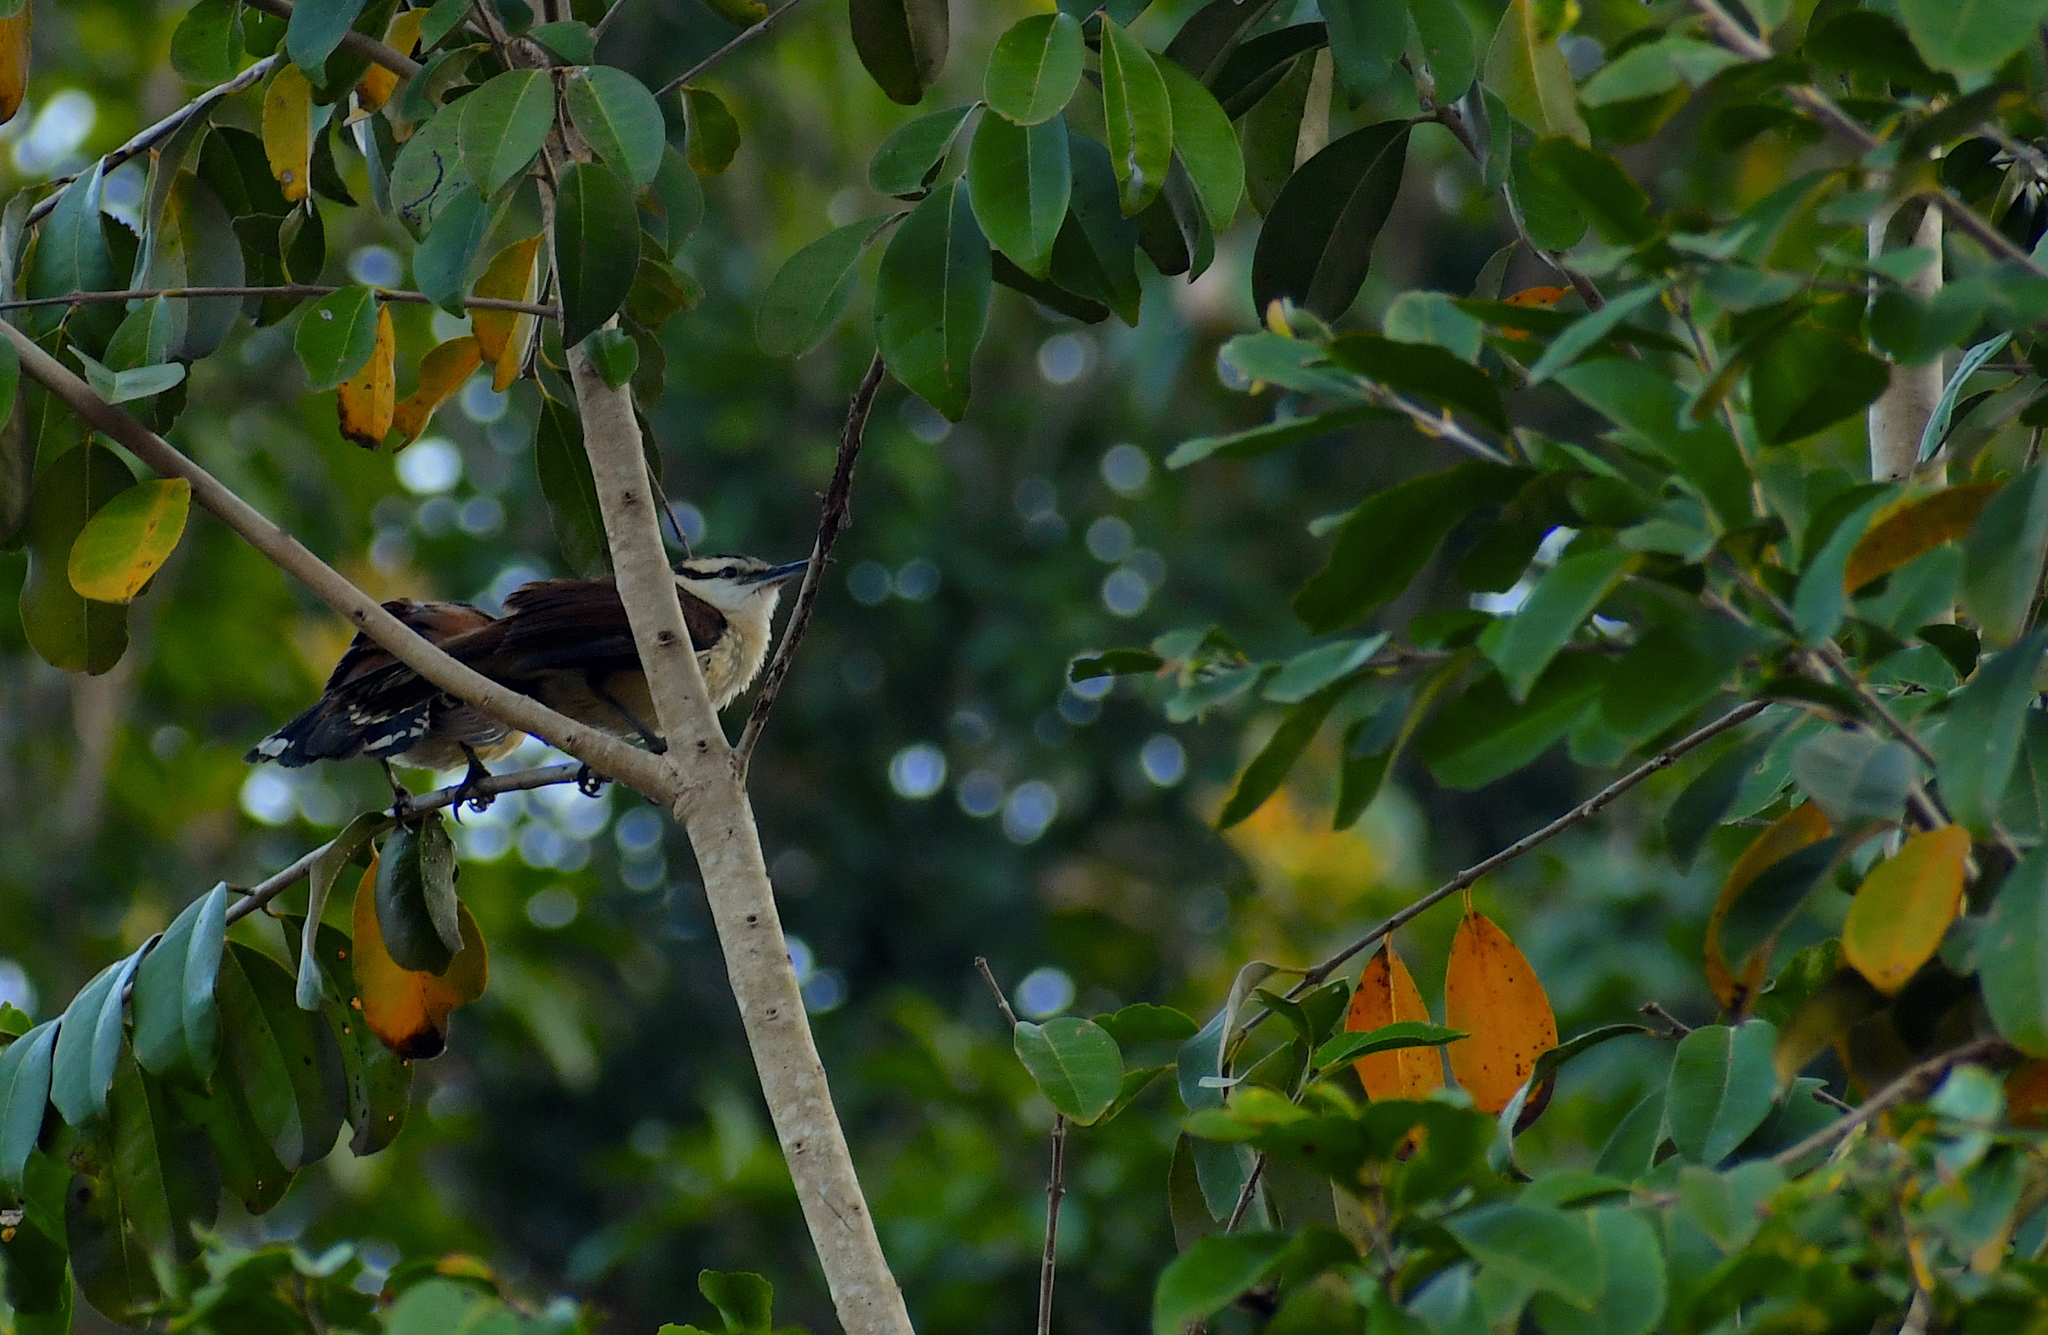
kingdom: Animalia
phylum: Chordata
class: Aves
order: Passeriformes
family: Troglodytidae
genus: Campylorhynchus
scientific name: Campylorhynchus chiapensis
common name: Giant wren
